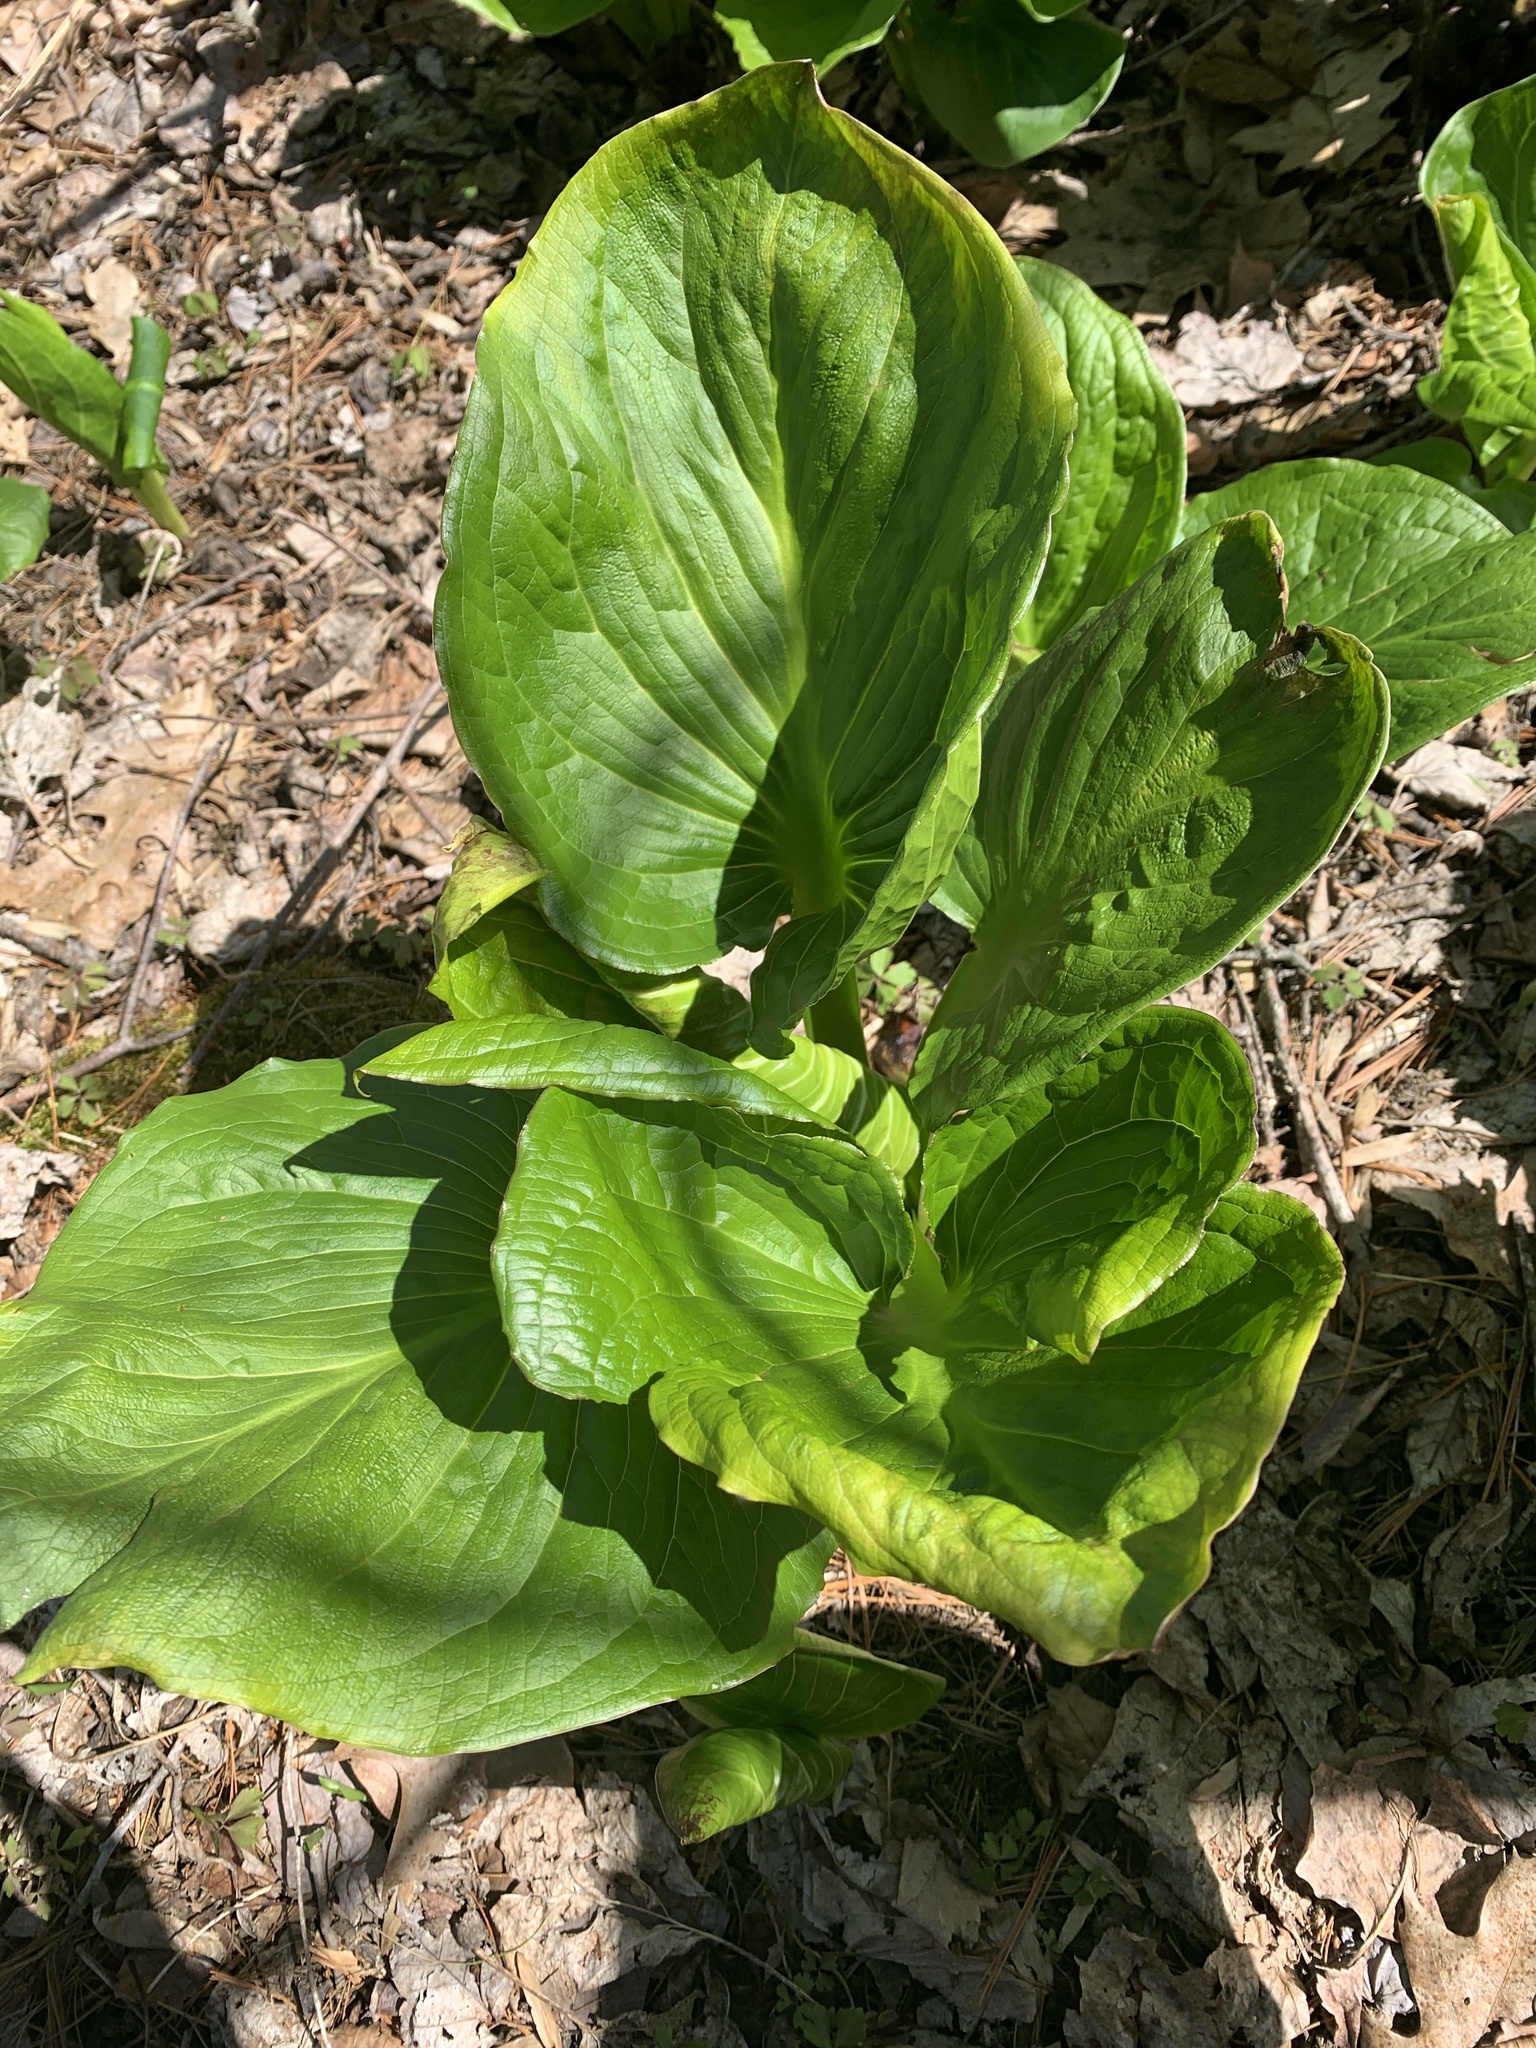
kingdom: Plantae
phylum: Tracheophyta
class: Liliopsida
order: Alismatales
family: Araceae
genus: Symplocarpus
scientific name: Symplocarpus foetidus
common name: Eastern skunk cabbage
